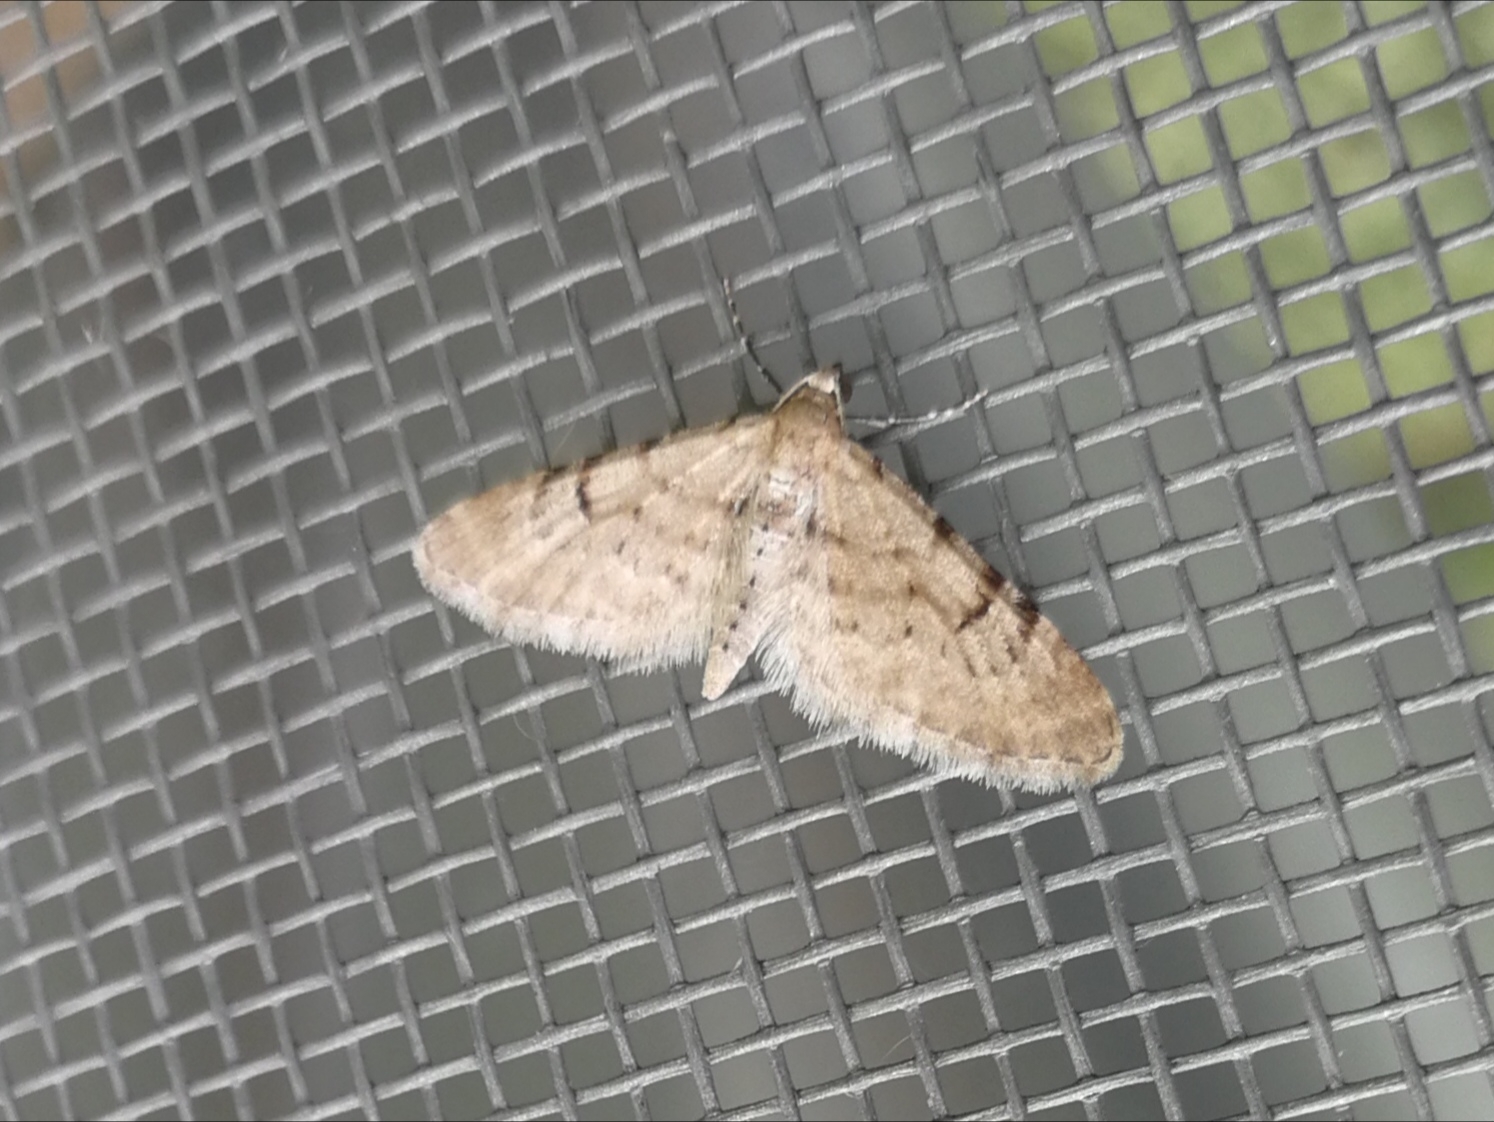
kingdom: Animalia
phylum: Arthropoda
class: Insecta
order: Lepidoptera
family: Geometridae
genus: Eupithecia
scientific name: Eupithecia indigata
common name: Ochreous pug
